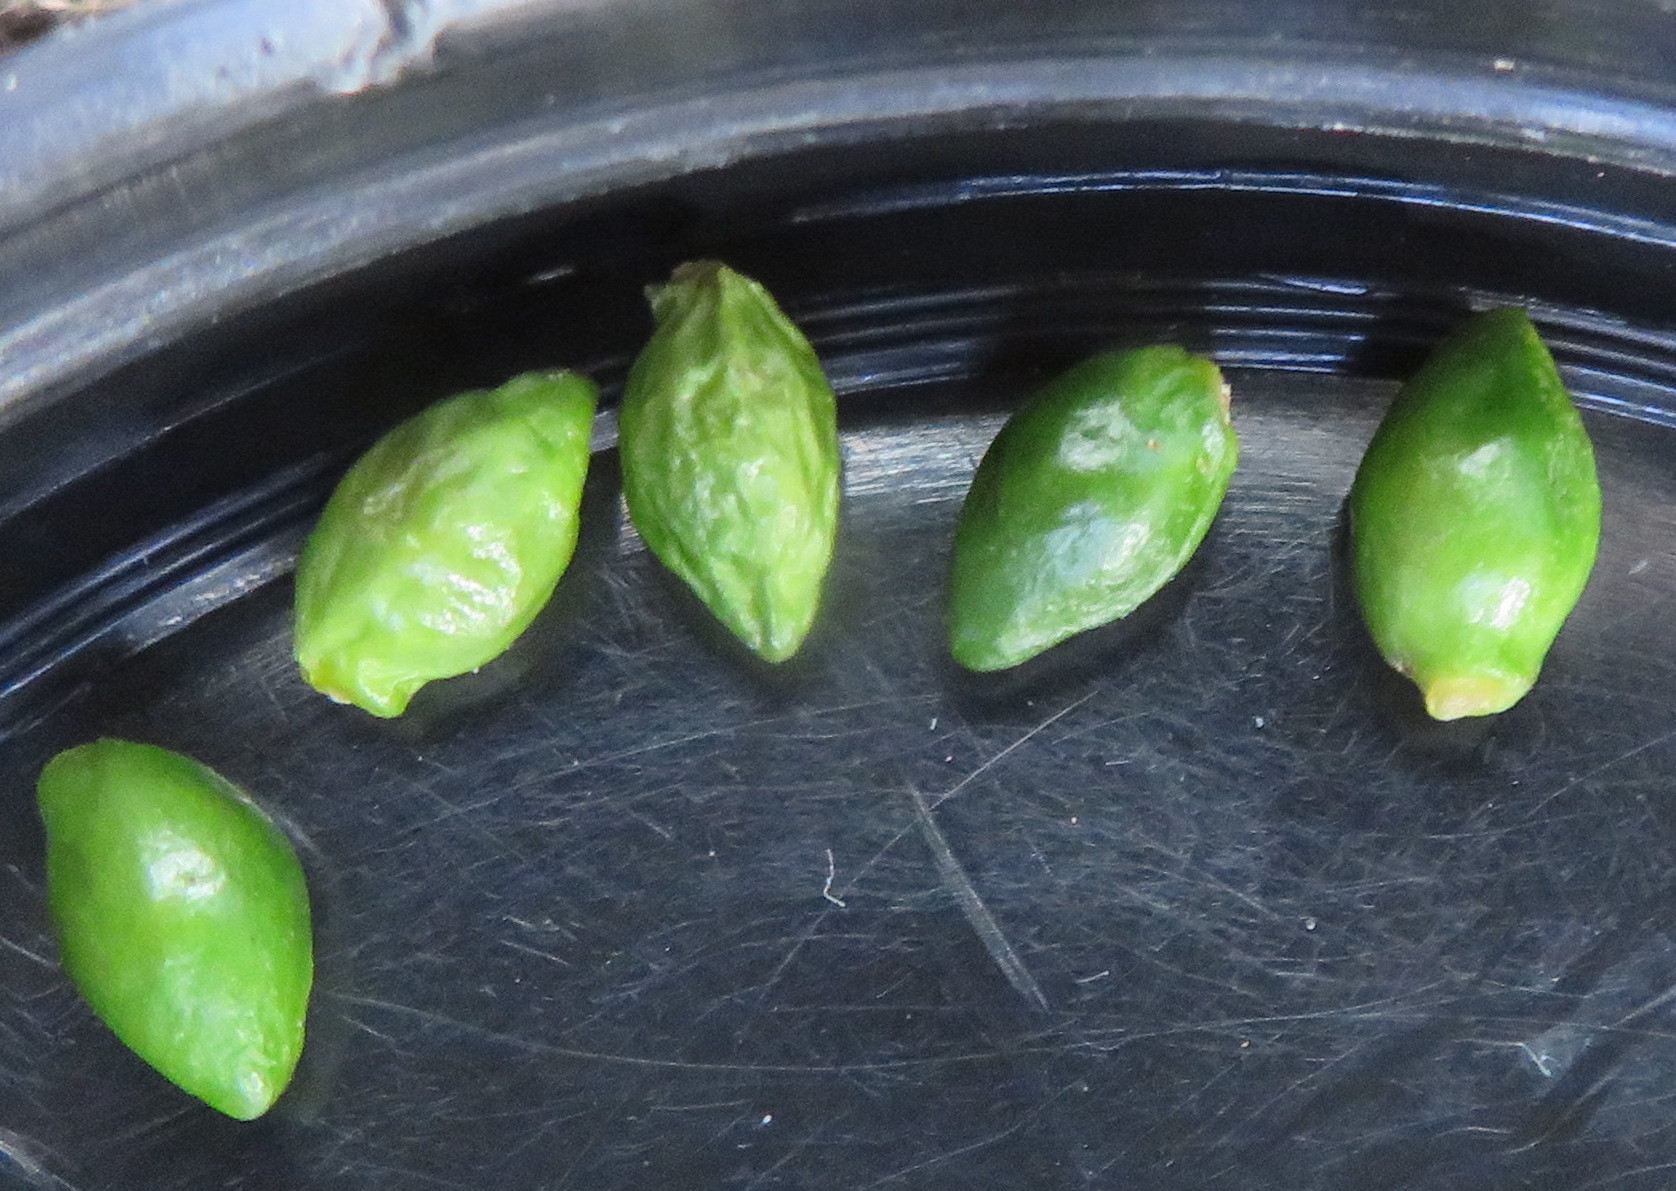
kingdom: Plantae
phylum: Tracheophyta
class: Pinopsida
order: Pinales
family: Podocarpaceae
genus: Podocarpus
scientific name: Podocarpus totara
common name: Totara
